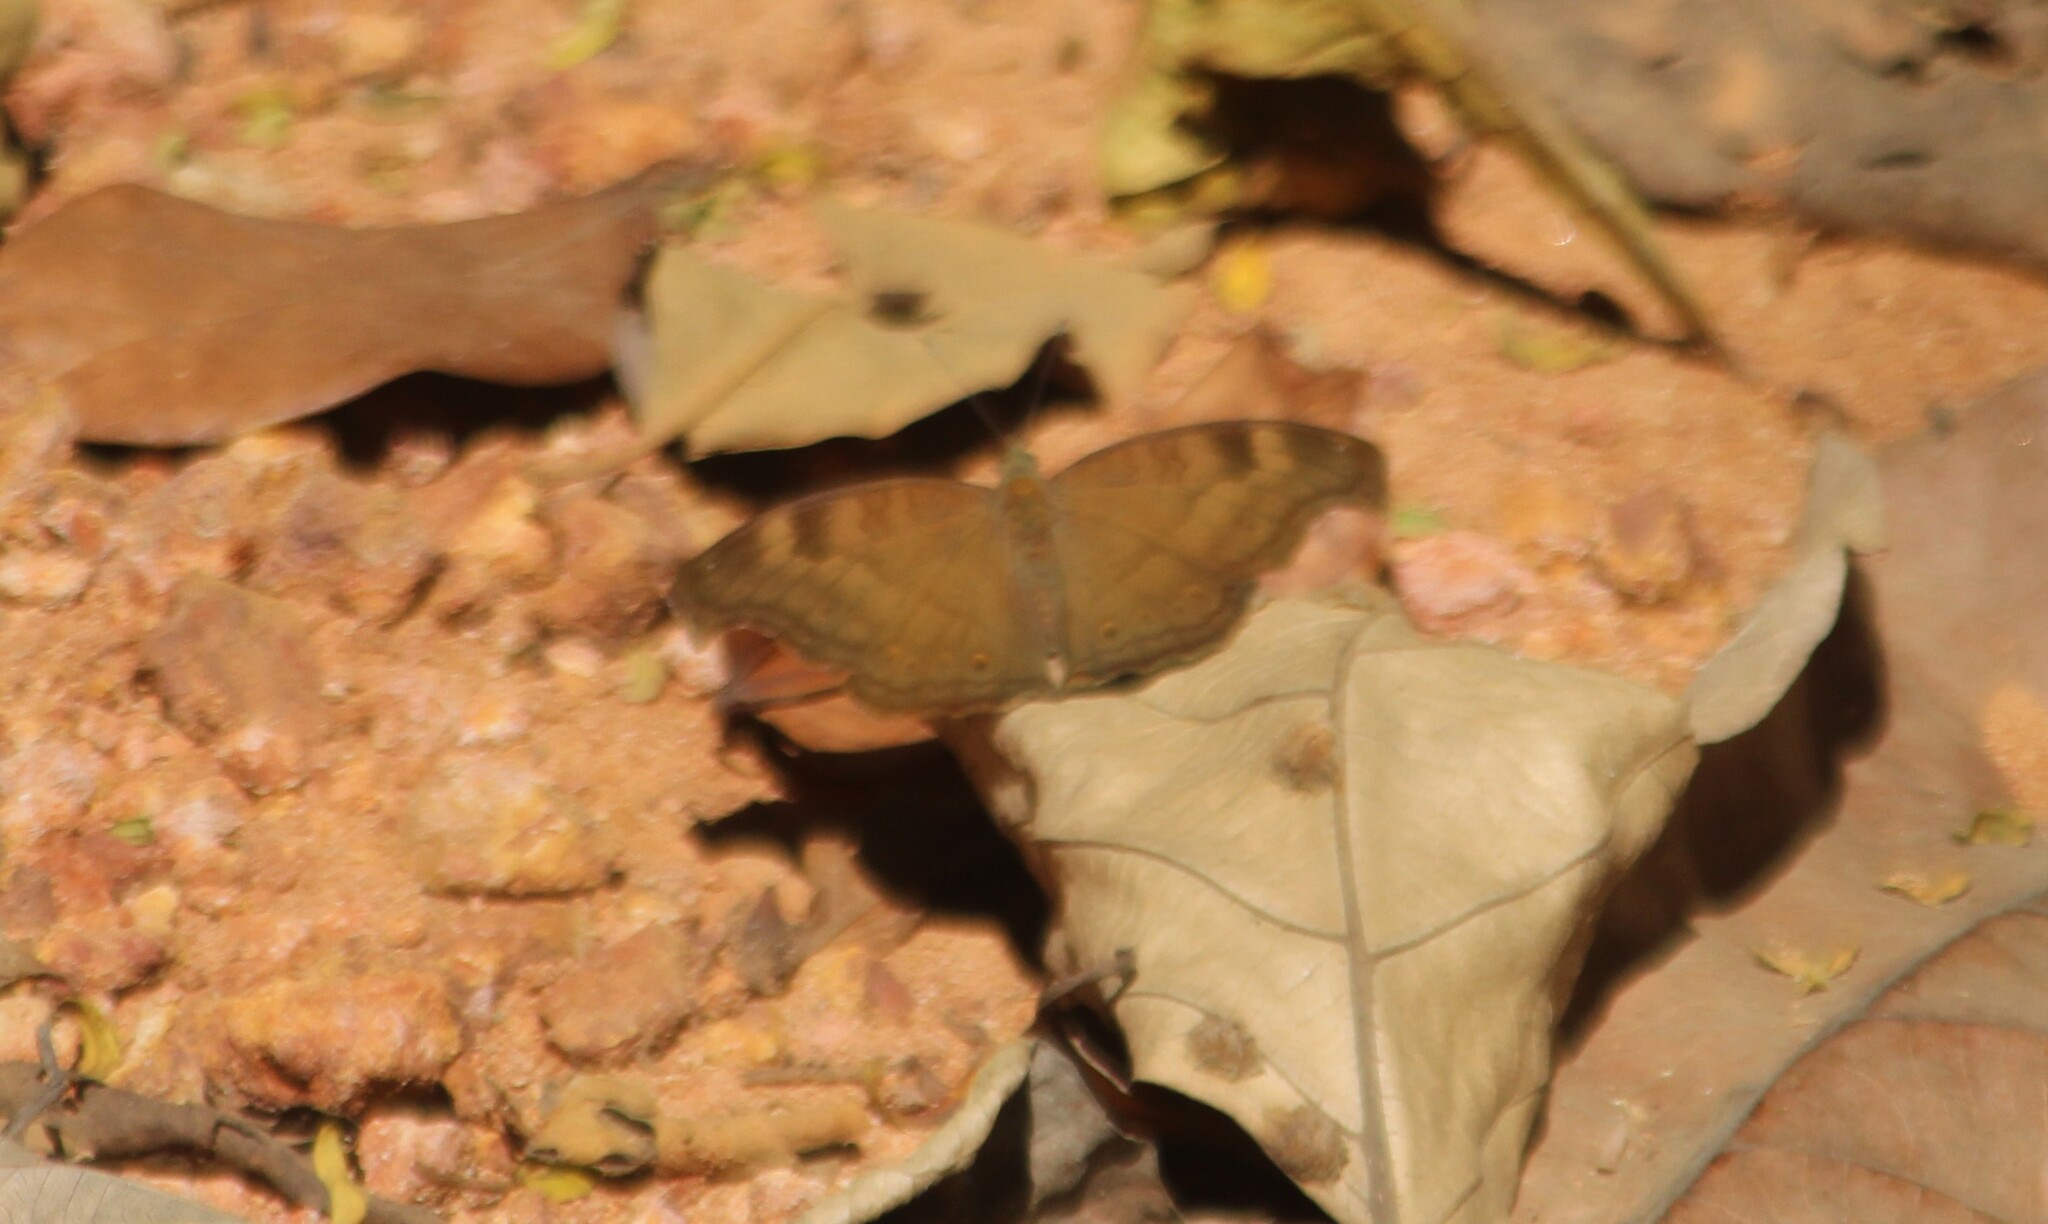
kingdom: Animalia
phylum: Arthropoda
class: Insecta
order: Lepidoptera
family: Nymphalidae
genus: Junonia
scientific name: Junonia iphita
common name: Chocolate pansy
